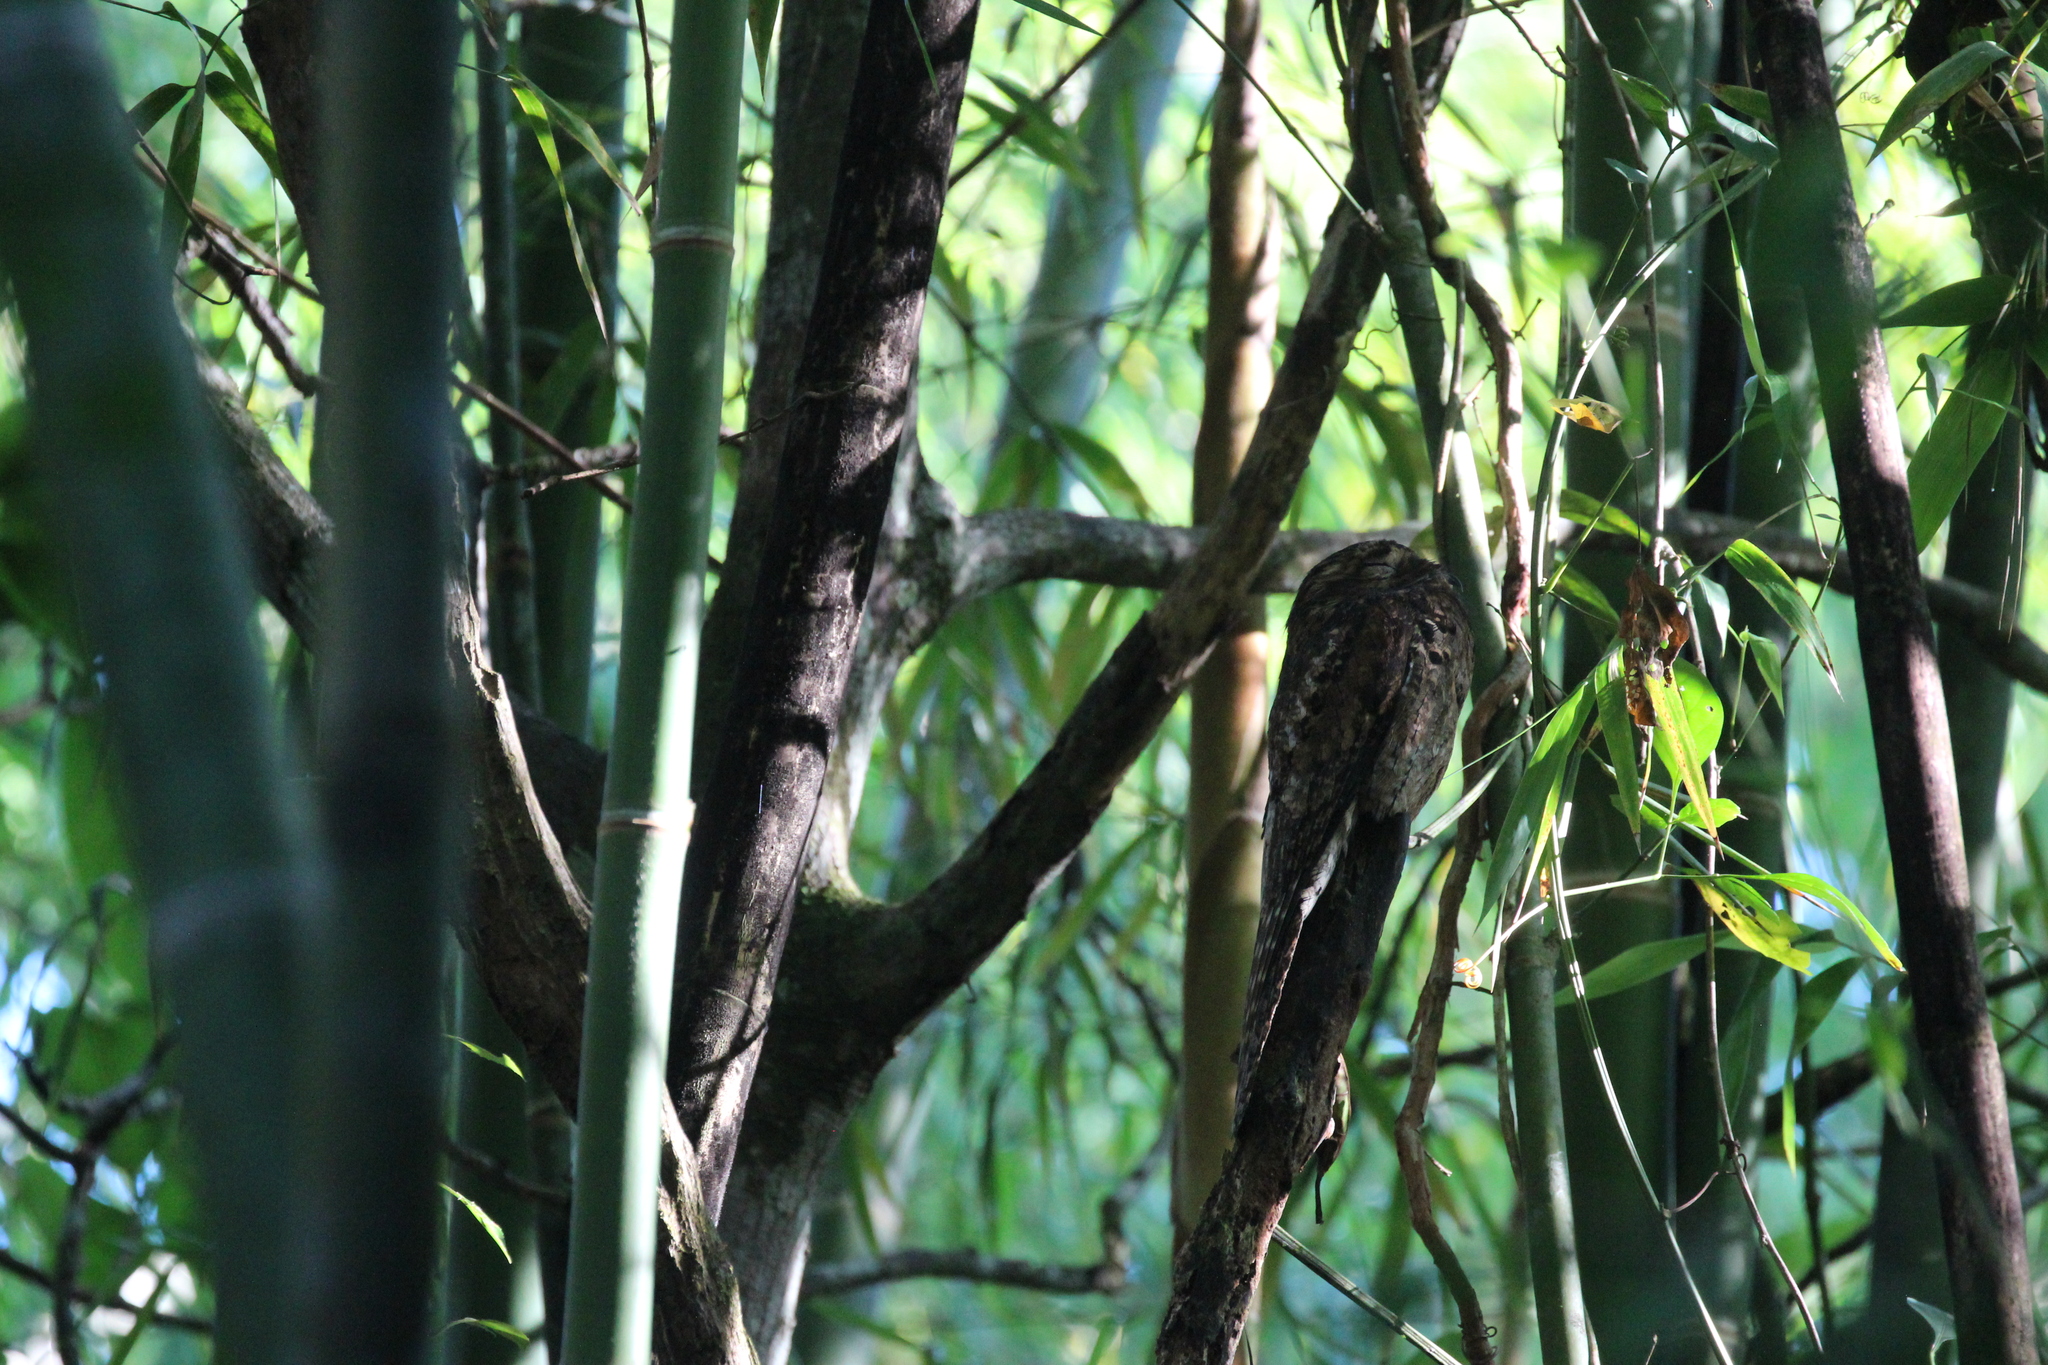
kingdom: Animalia
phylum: Chordata
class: Aves
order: Nyctibiiformes
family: Nyctibiidae
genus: Nyctibius
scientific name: Nyctibius griseus
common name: Common potoo
